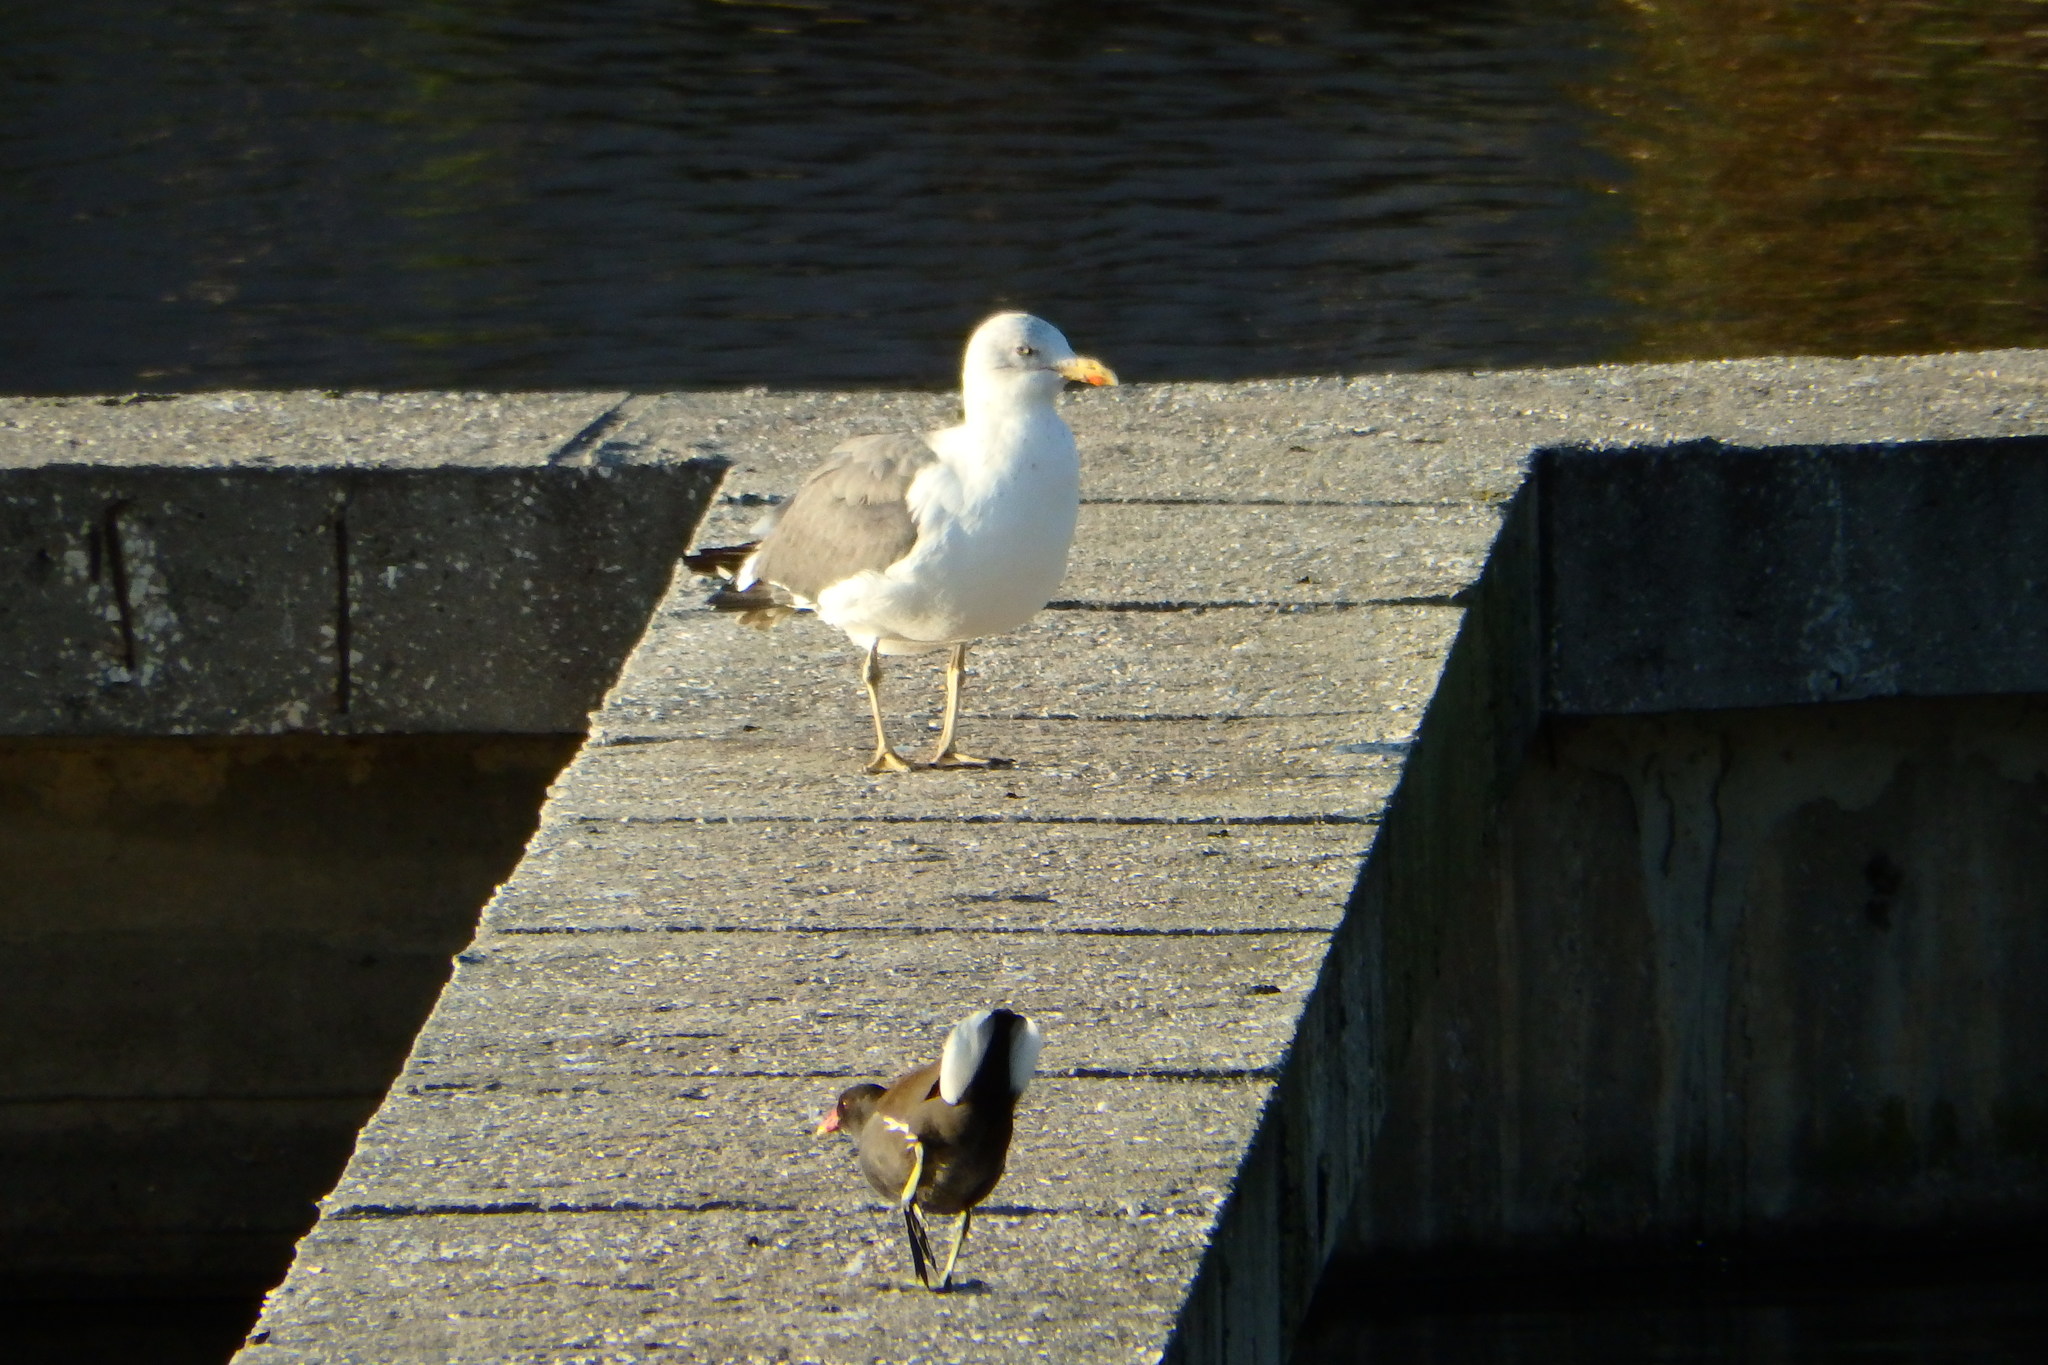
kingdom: Animalia
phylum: Chordata
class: Aves
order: Charadriiformes
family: Laridae
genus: Larus
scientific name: Larus michahellis
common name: Yellow-legged gull
